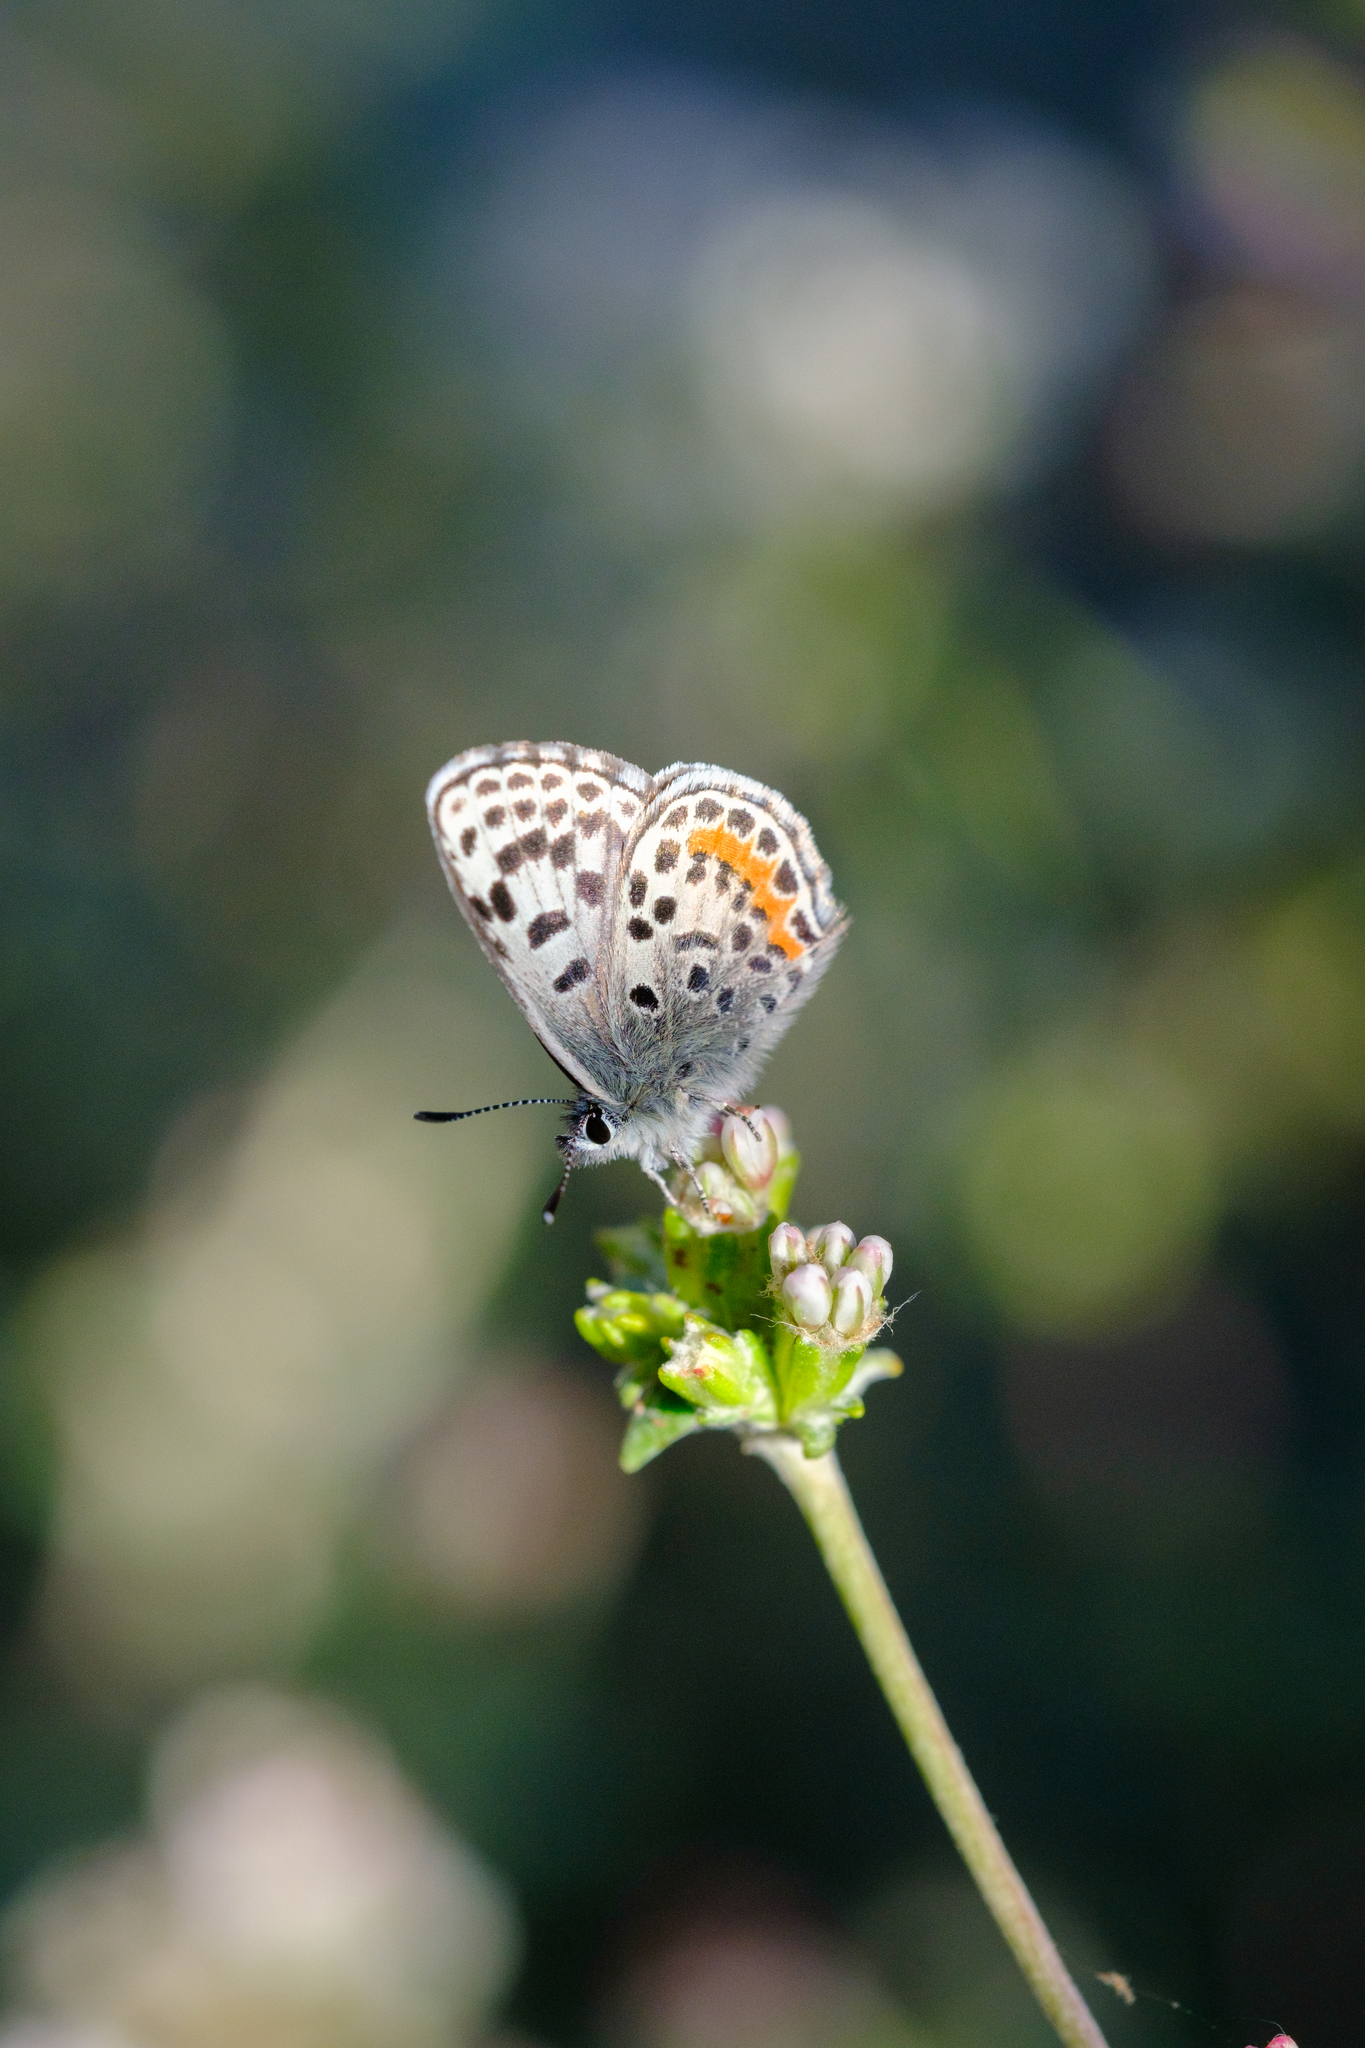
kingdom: Animalia
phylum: Arthropoda
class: Insecta
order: Lepidoptera
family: Lycaenidae
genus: Euphilotes
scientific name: Euphilotes battoides
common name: Square-spotted blue
